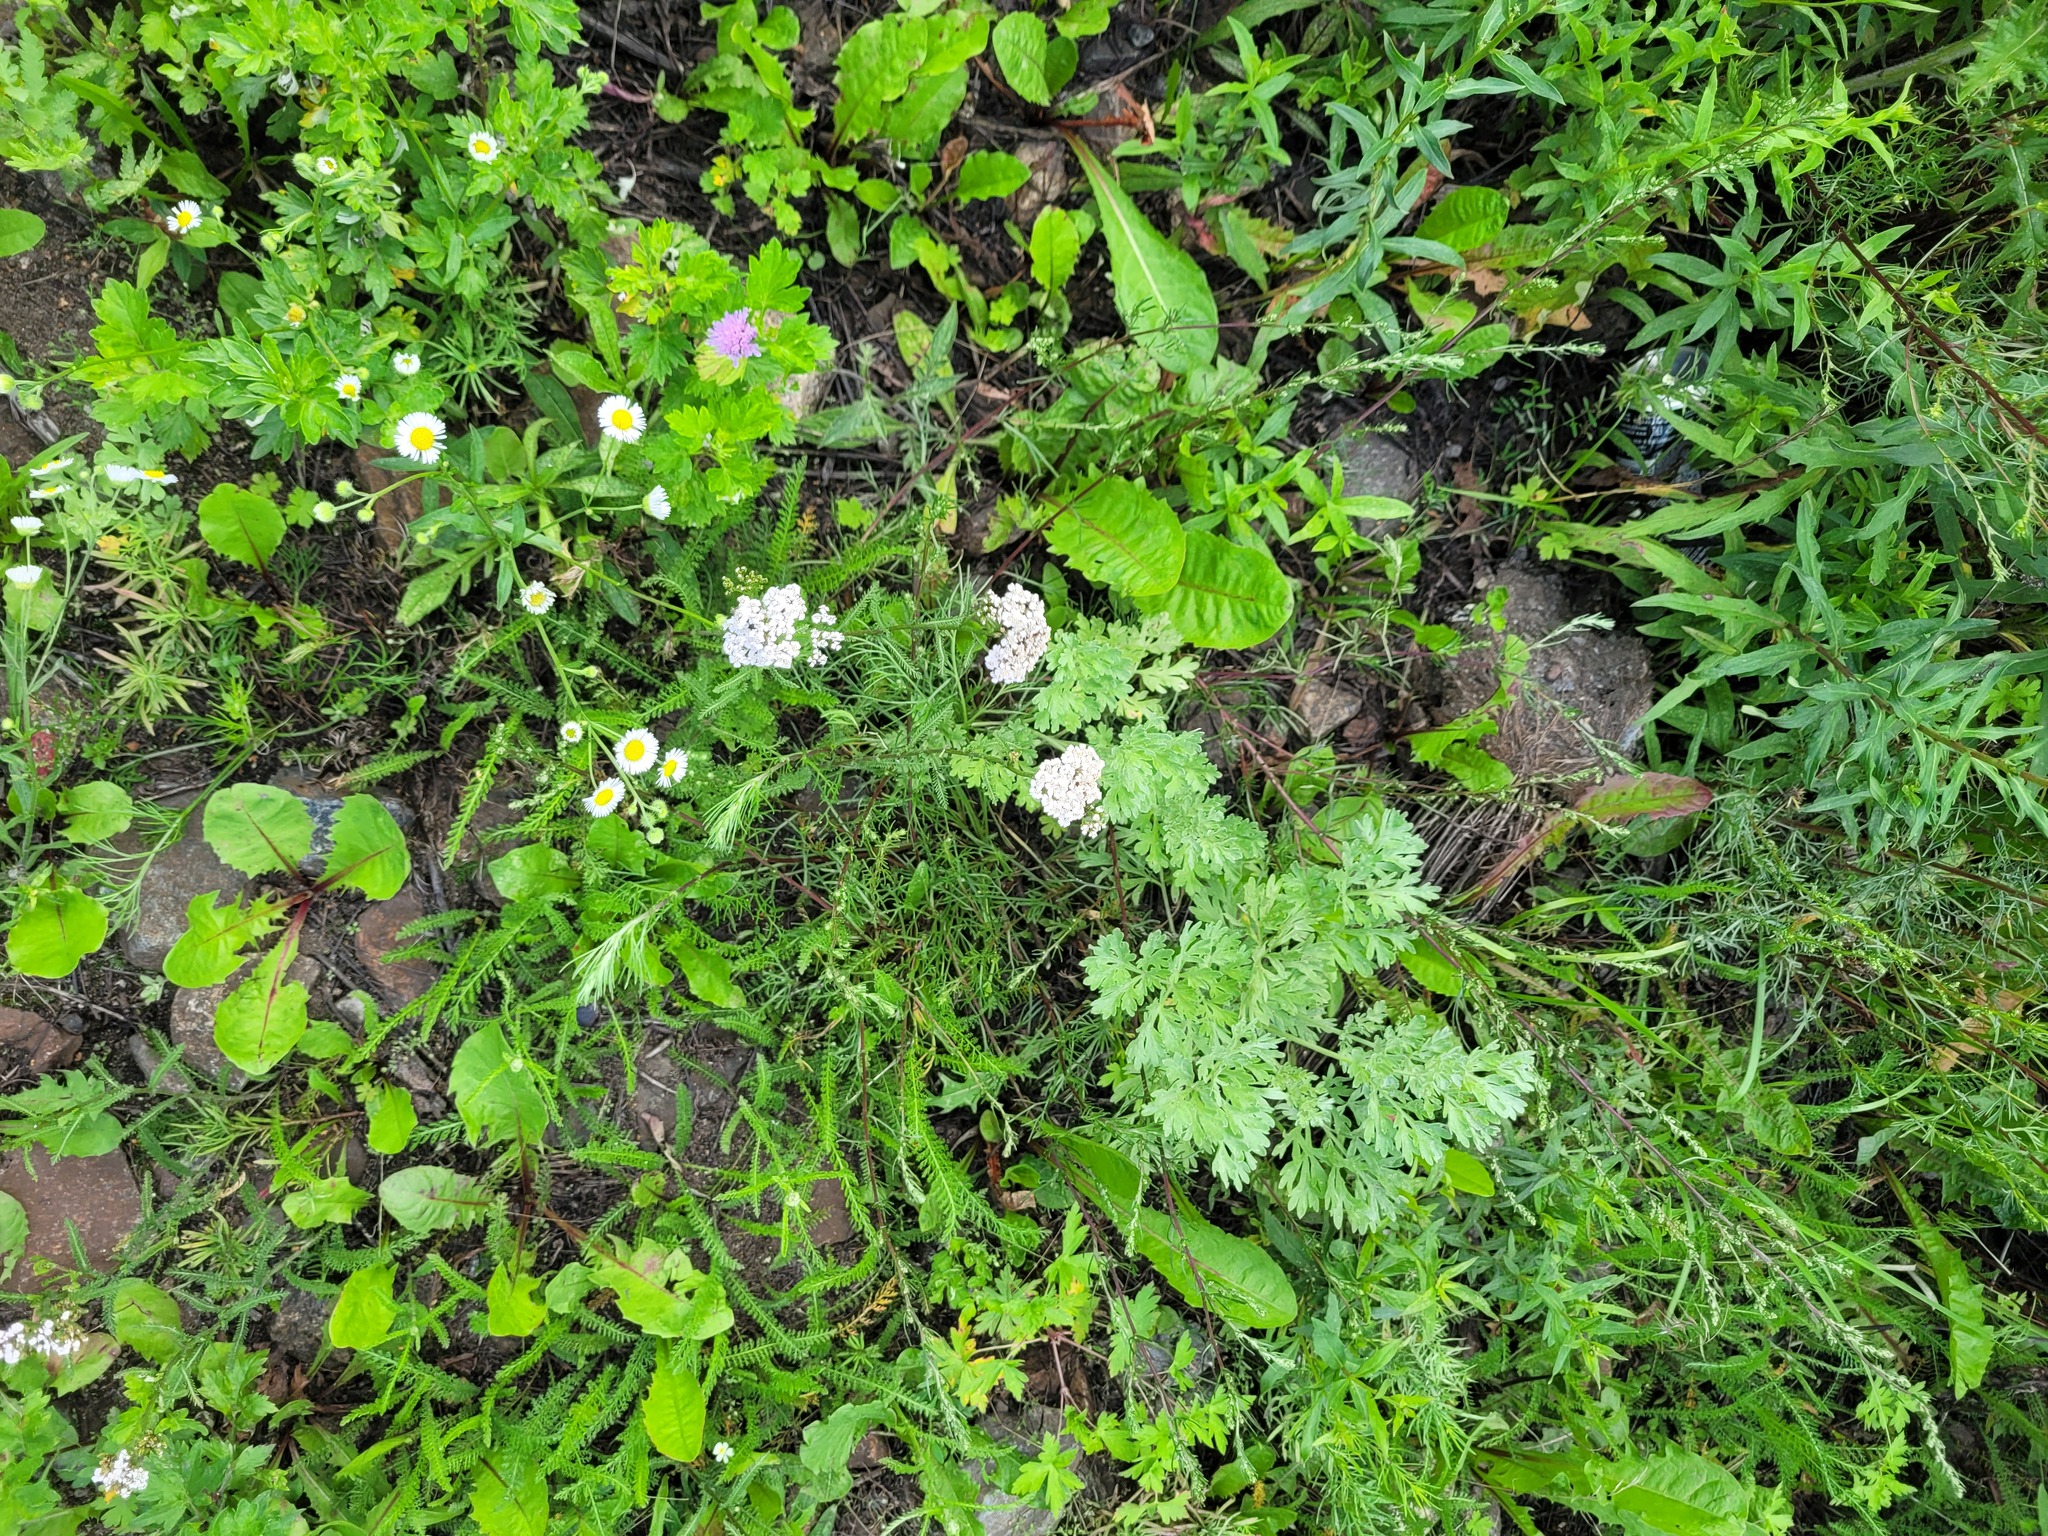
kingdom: Plantae
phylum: Tracheophyta
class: Magnoliopsida
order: Asterales
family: Asteraceae
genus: Achillea
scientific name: Achillea millefolium
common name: Yarrow
